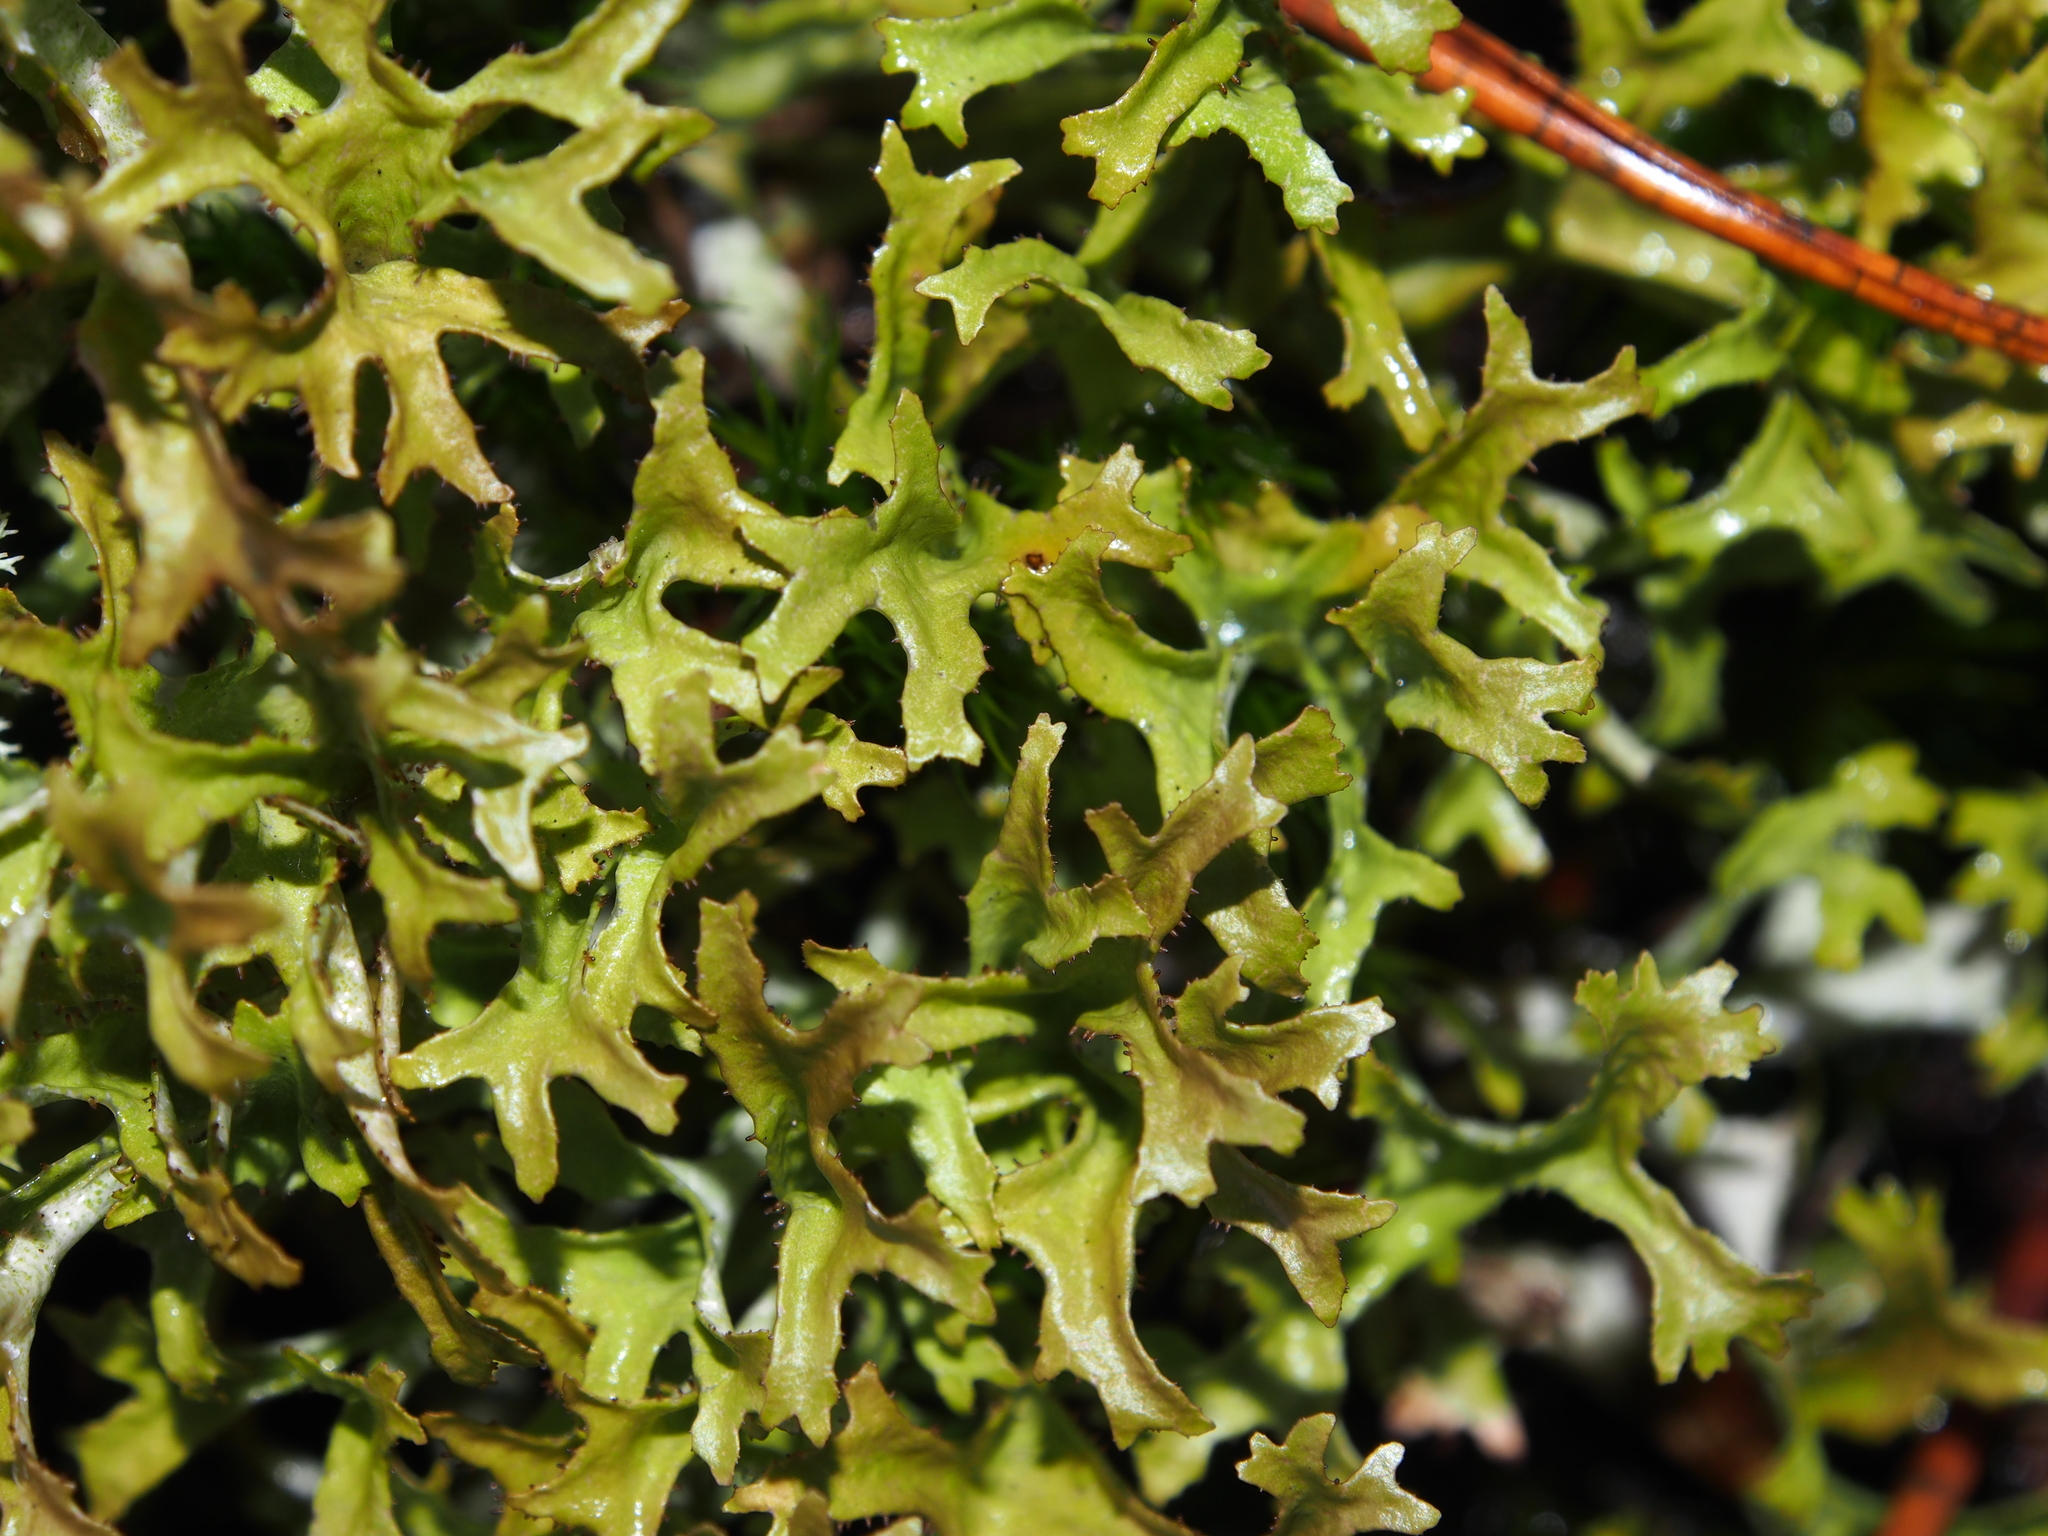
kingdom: Fungi
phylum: Ascomycota
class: Lecanoromycetes
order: Lecanorales
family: Parmeliaceae
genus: Cetraria
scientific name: Cetraria islandica
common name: Iceland lichen
